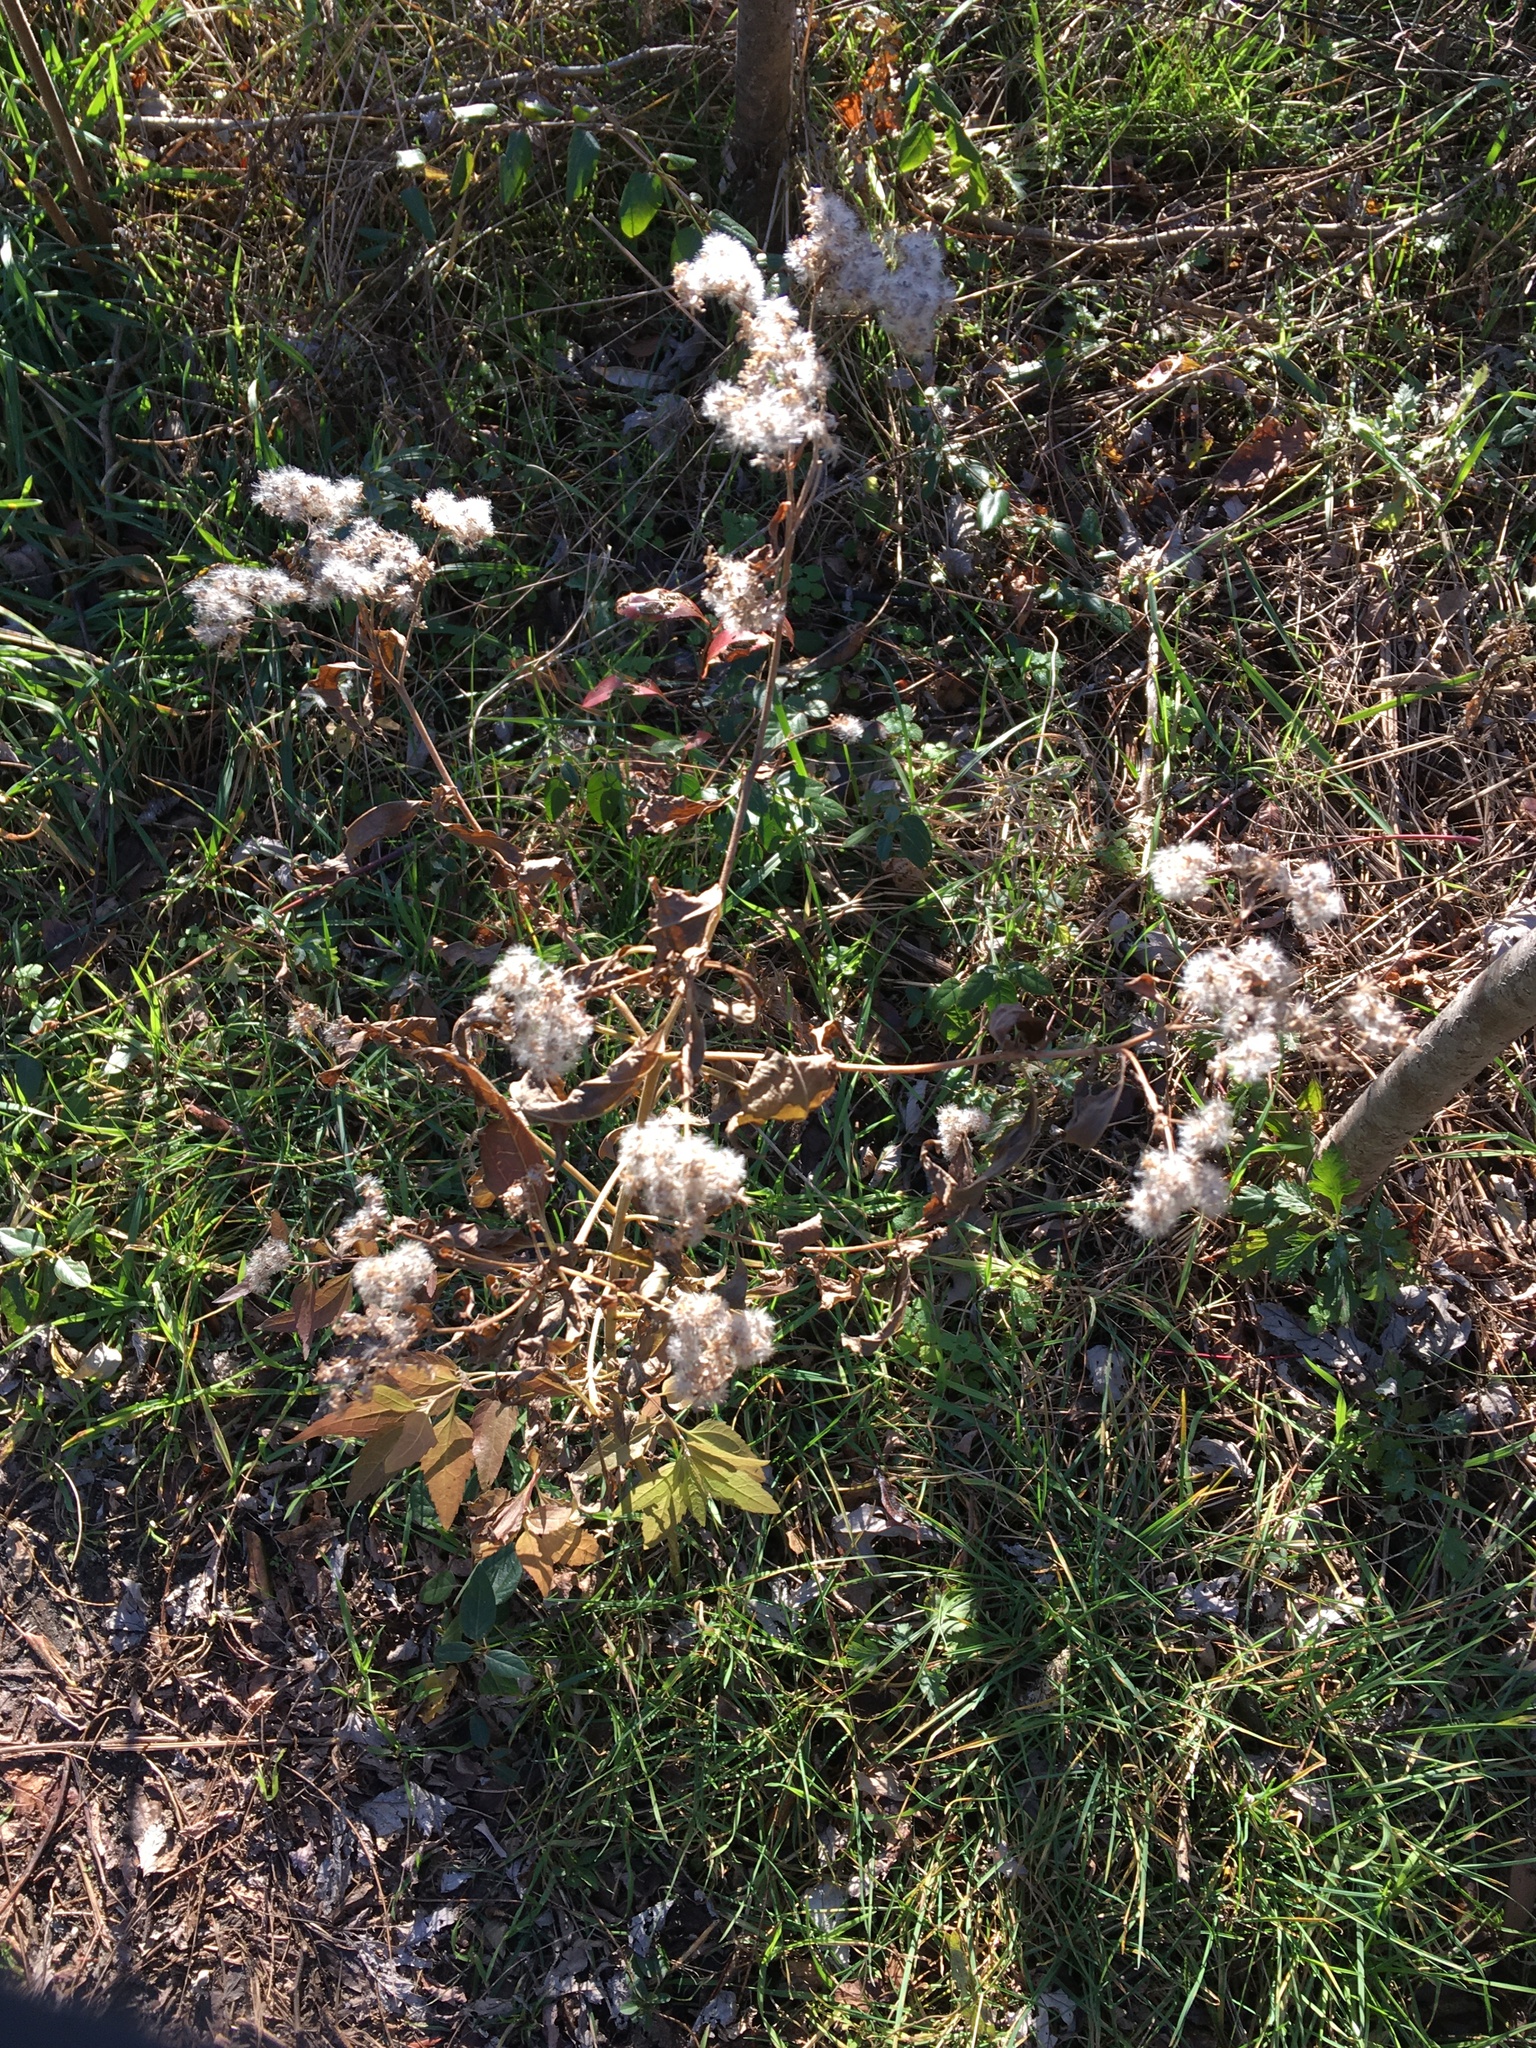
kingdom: Plantae
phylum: Tracheophyta
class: Magnoliopsida
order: Asterales
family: Asteraceae
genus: Ageratina
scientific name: Ageratina altissima
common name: White snakeroot
